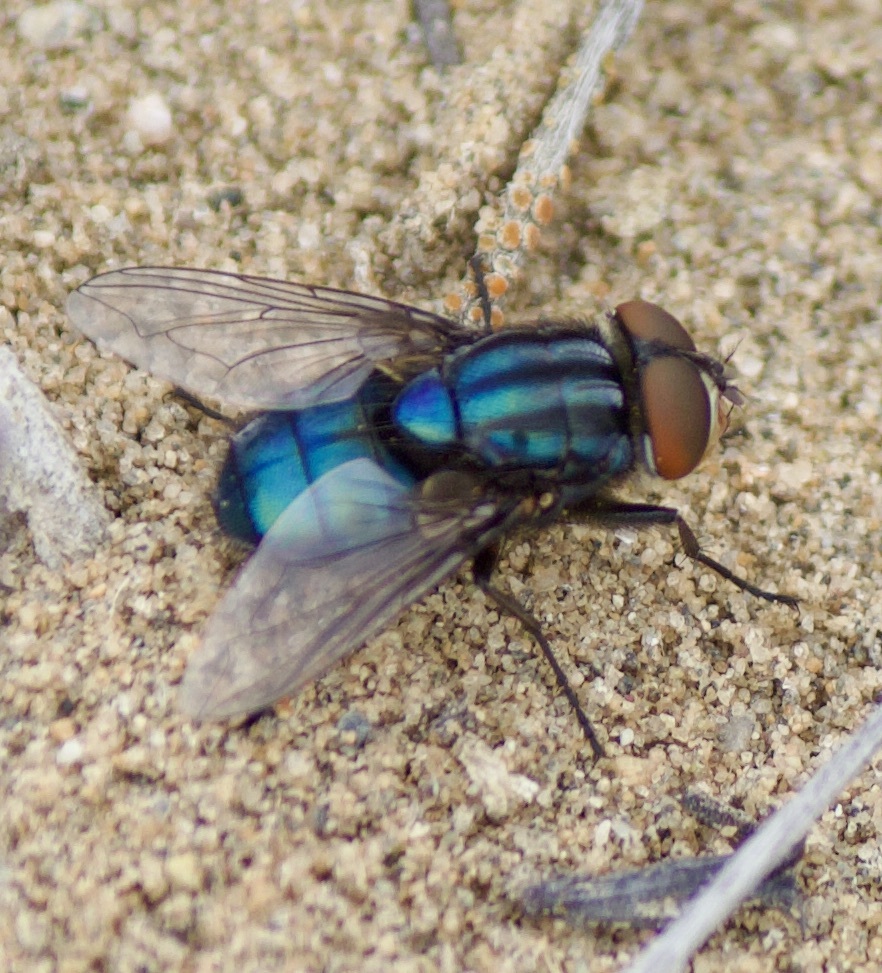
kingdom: Animalia
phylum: Arthropoda
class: Insecta
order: Diptera
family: Calliphoridae
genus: Compsomyiops
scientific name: Compsomyiops fulvicrura
